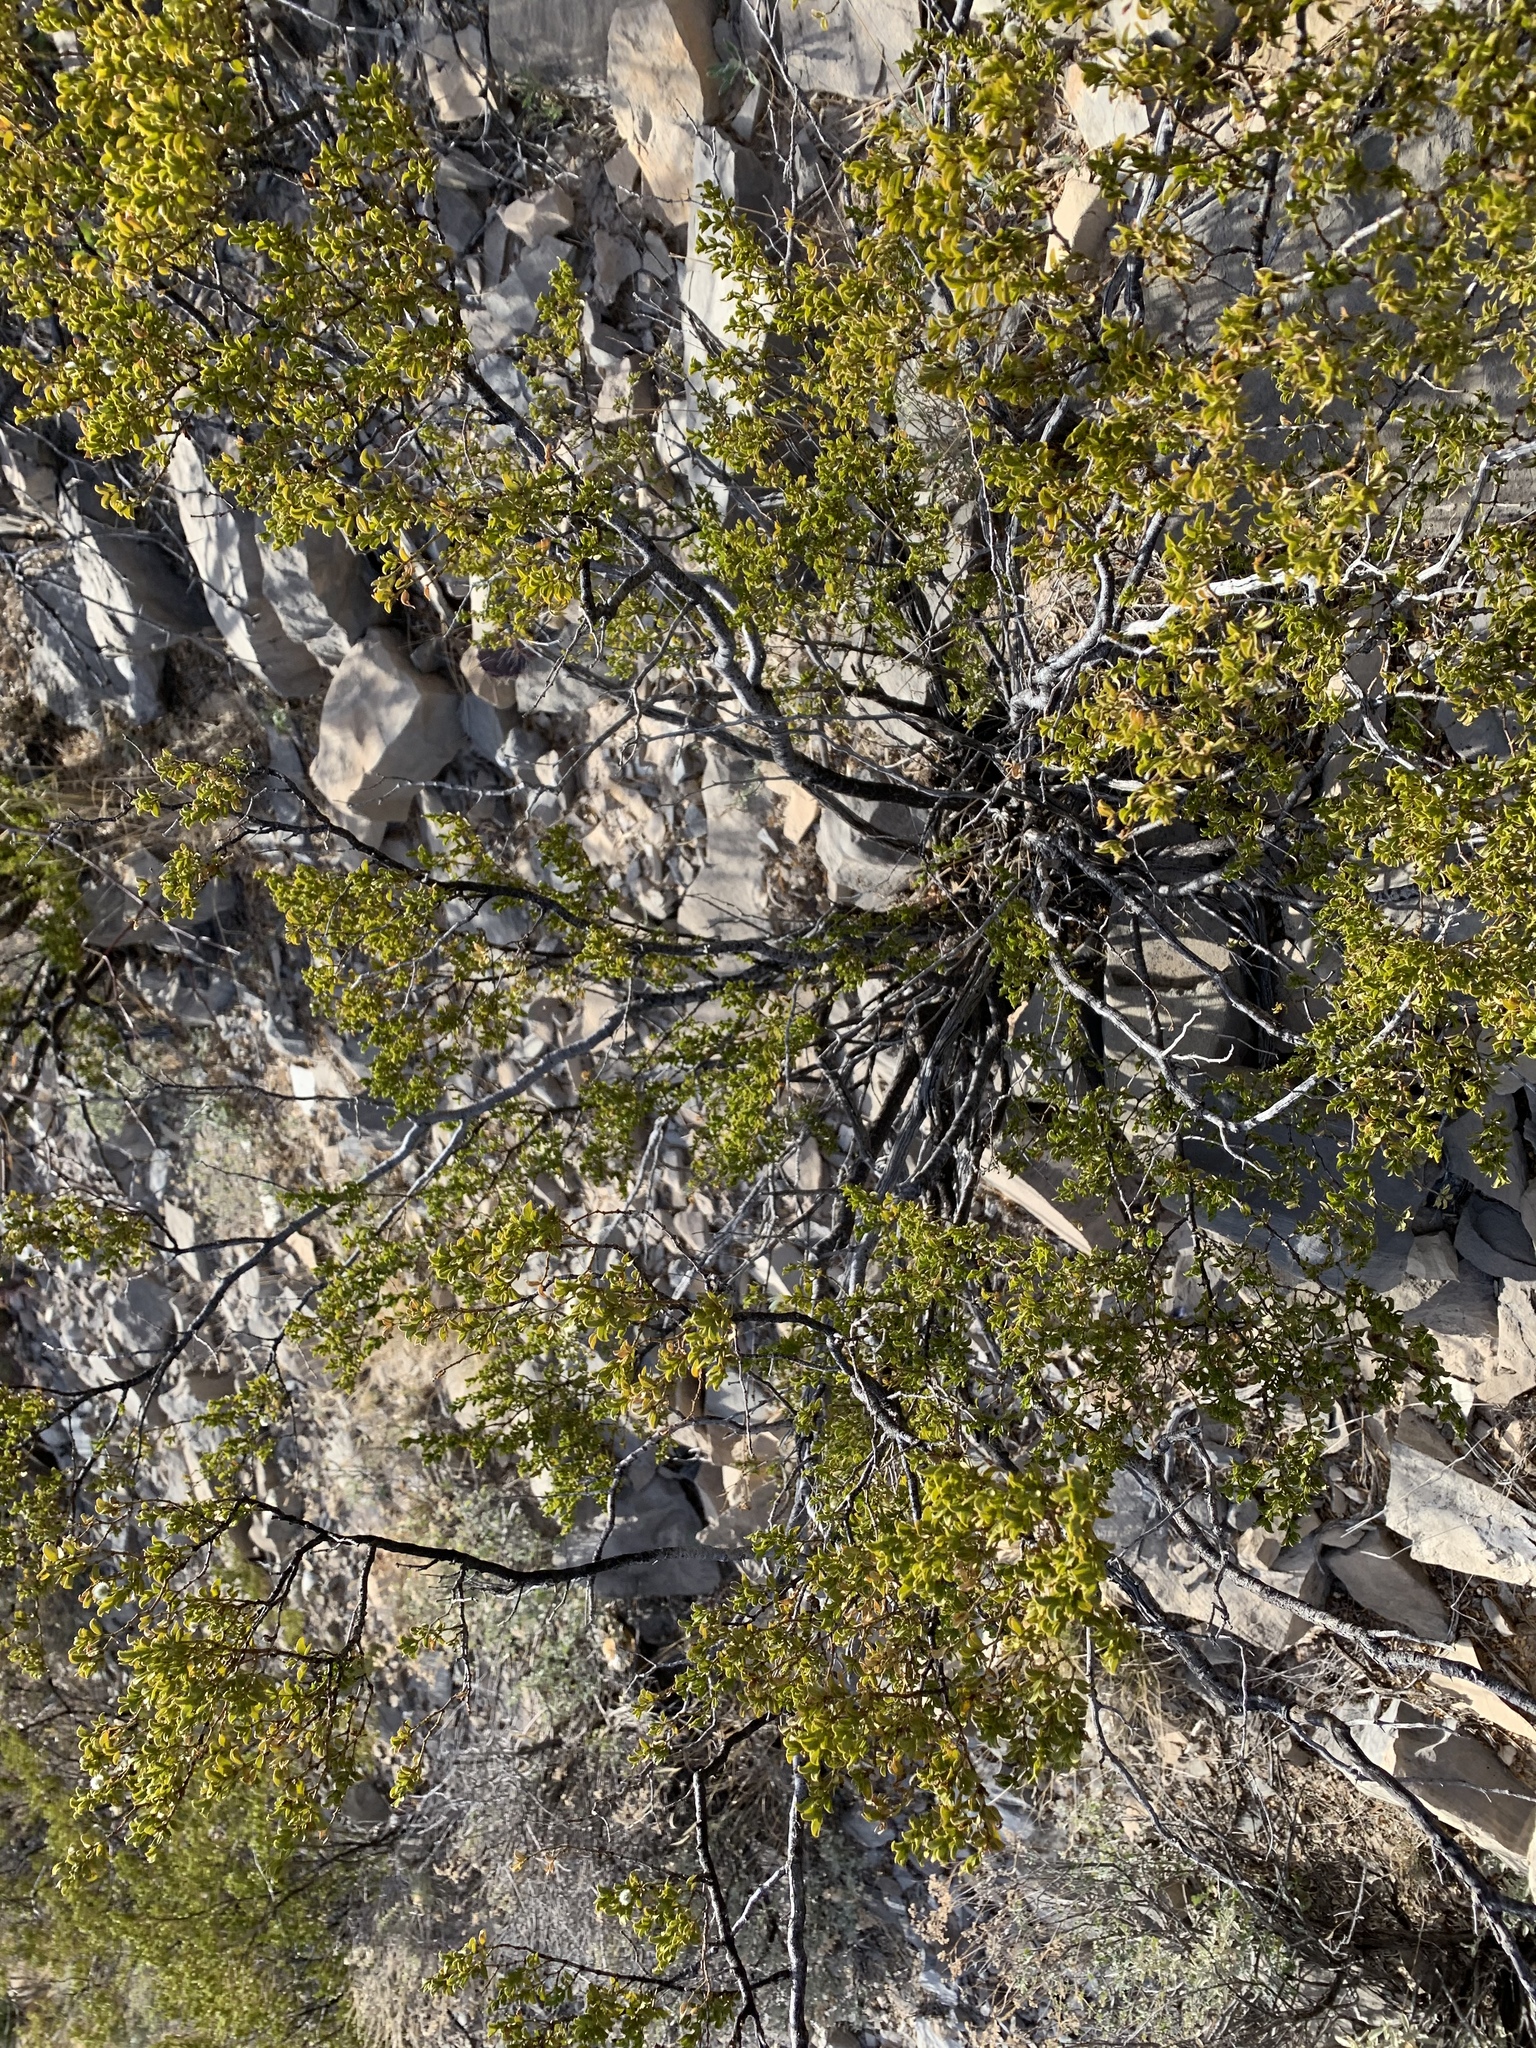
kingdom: Plantae
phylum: Tracheophyta
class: Magnoliopsida
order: Zygophyllales
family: Zygophyllaceae
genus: Larrea
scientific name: Larrea tridentata
